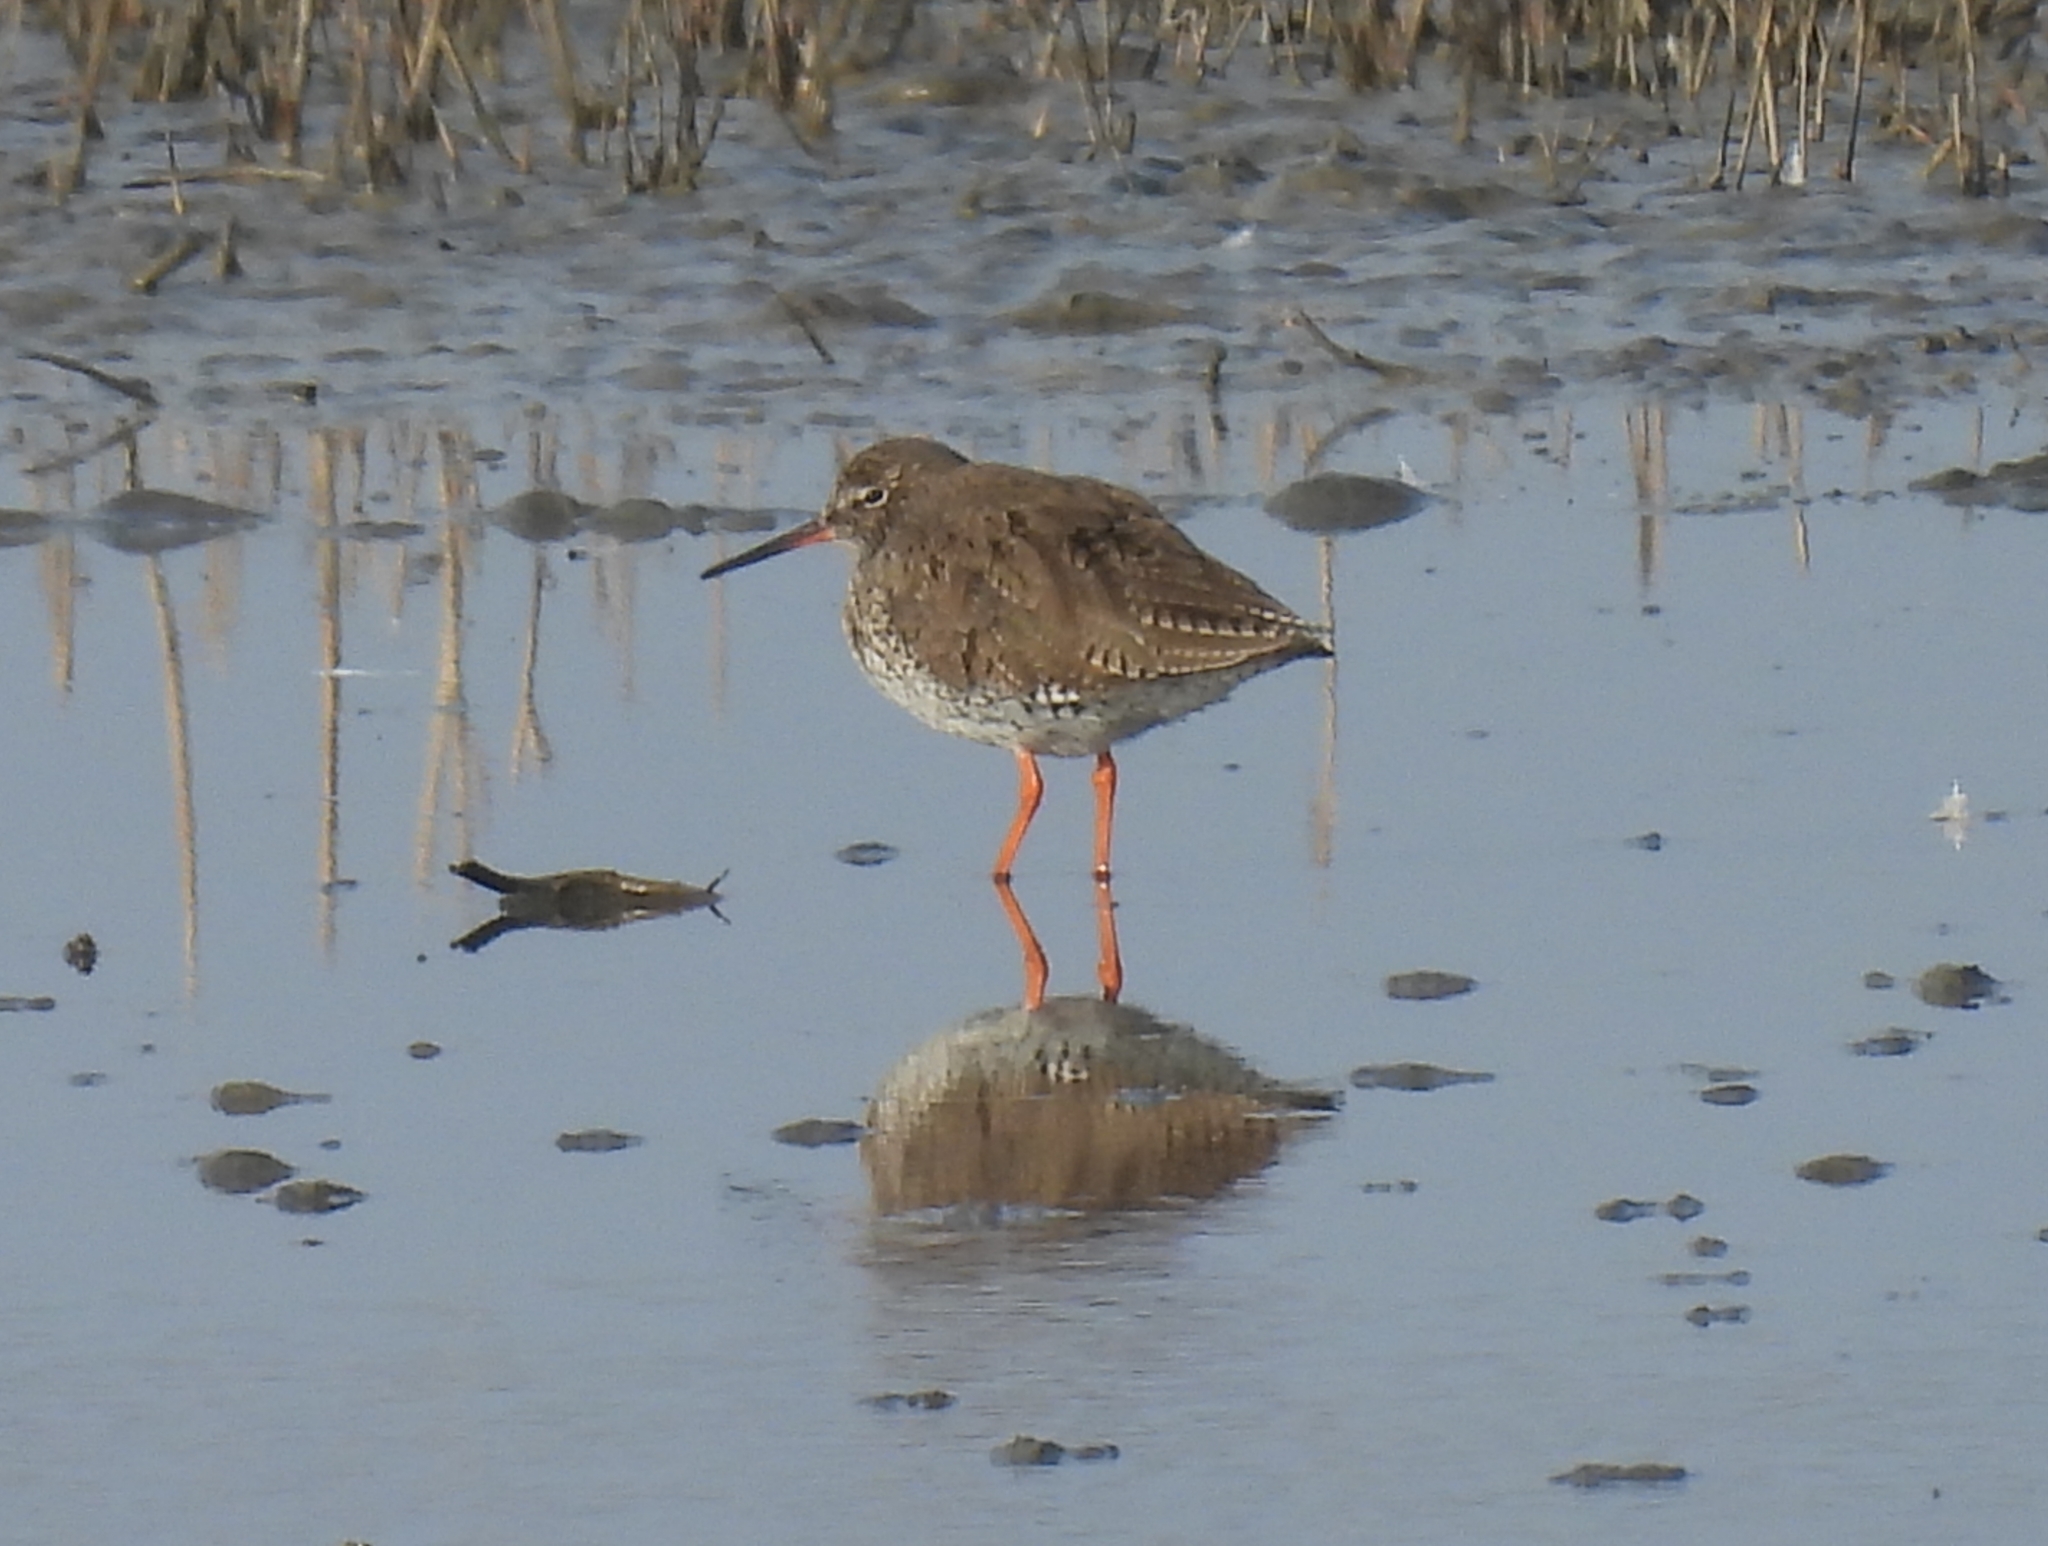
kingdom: Animalia
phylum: Chordata
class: Aves
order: Charadriiformes
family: Scolopacidae
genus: Tringa
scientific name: Tringa totanus
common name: Common redshank
